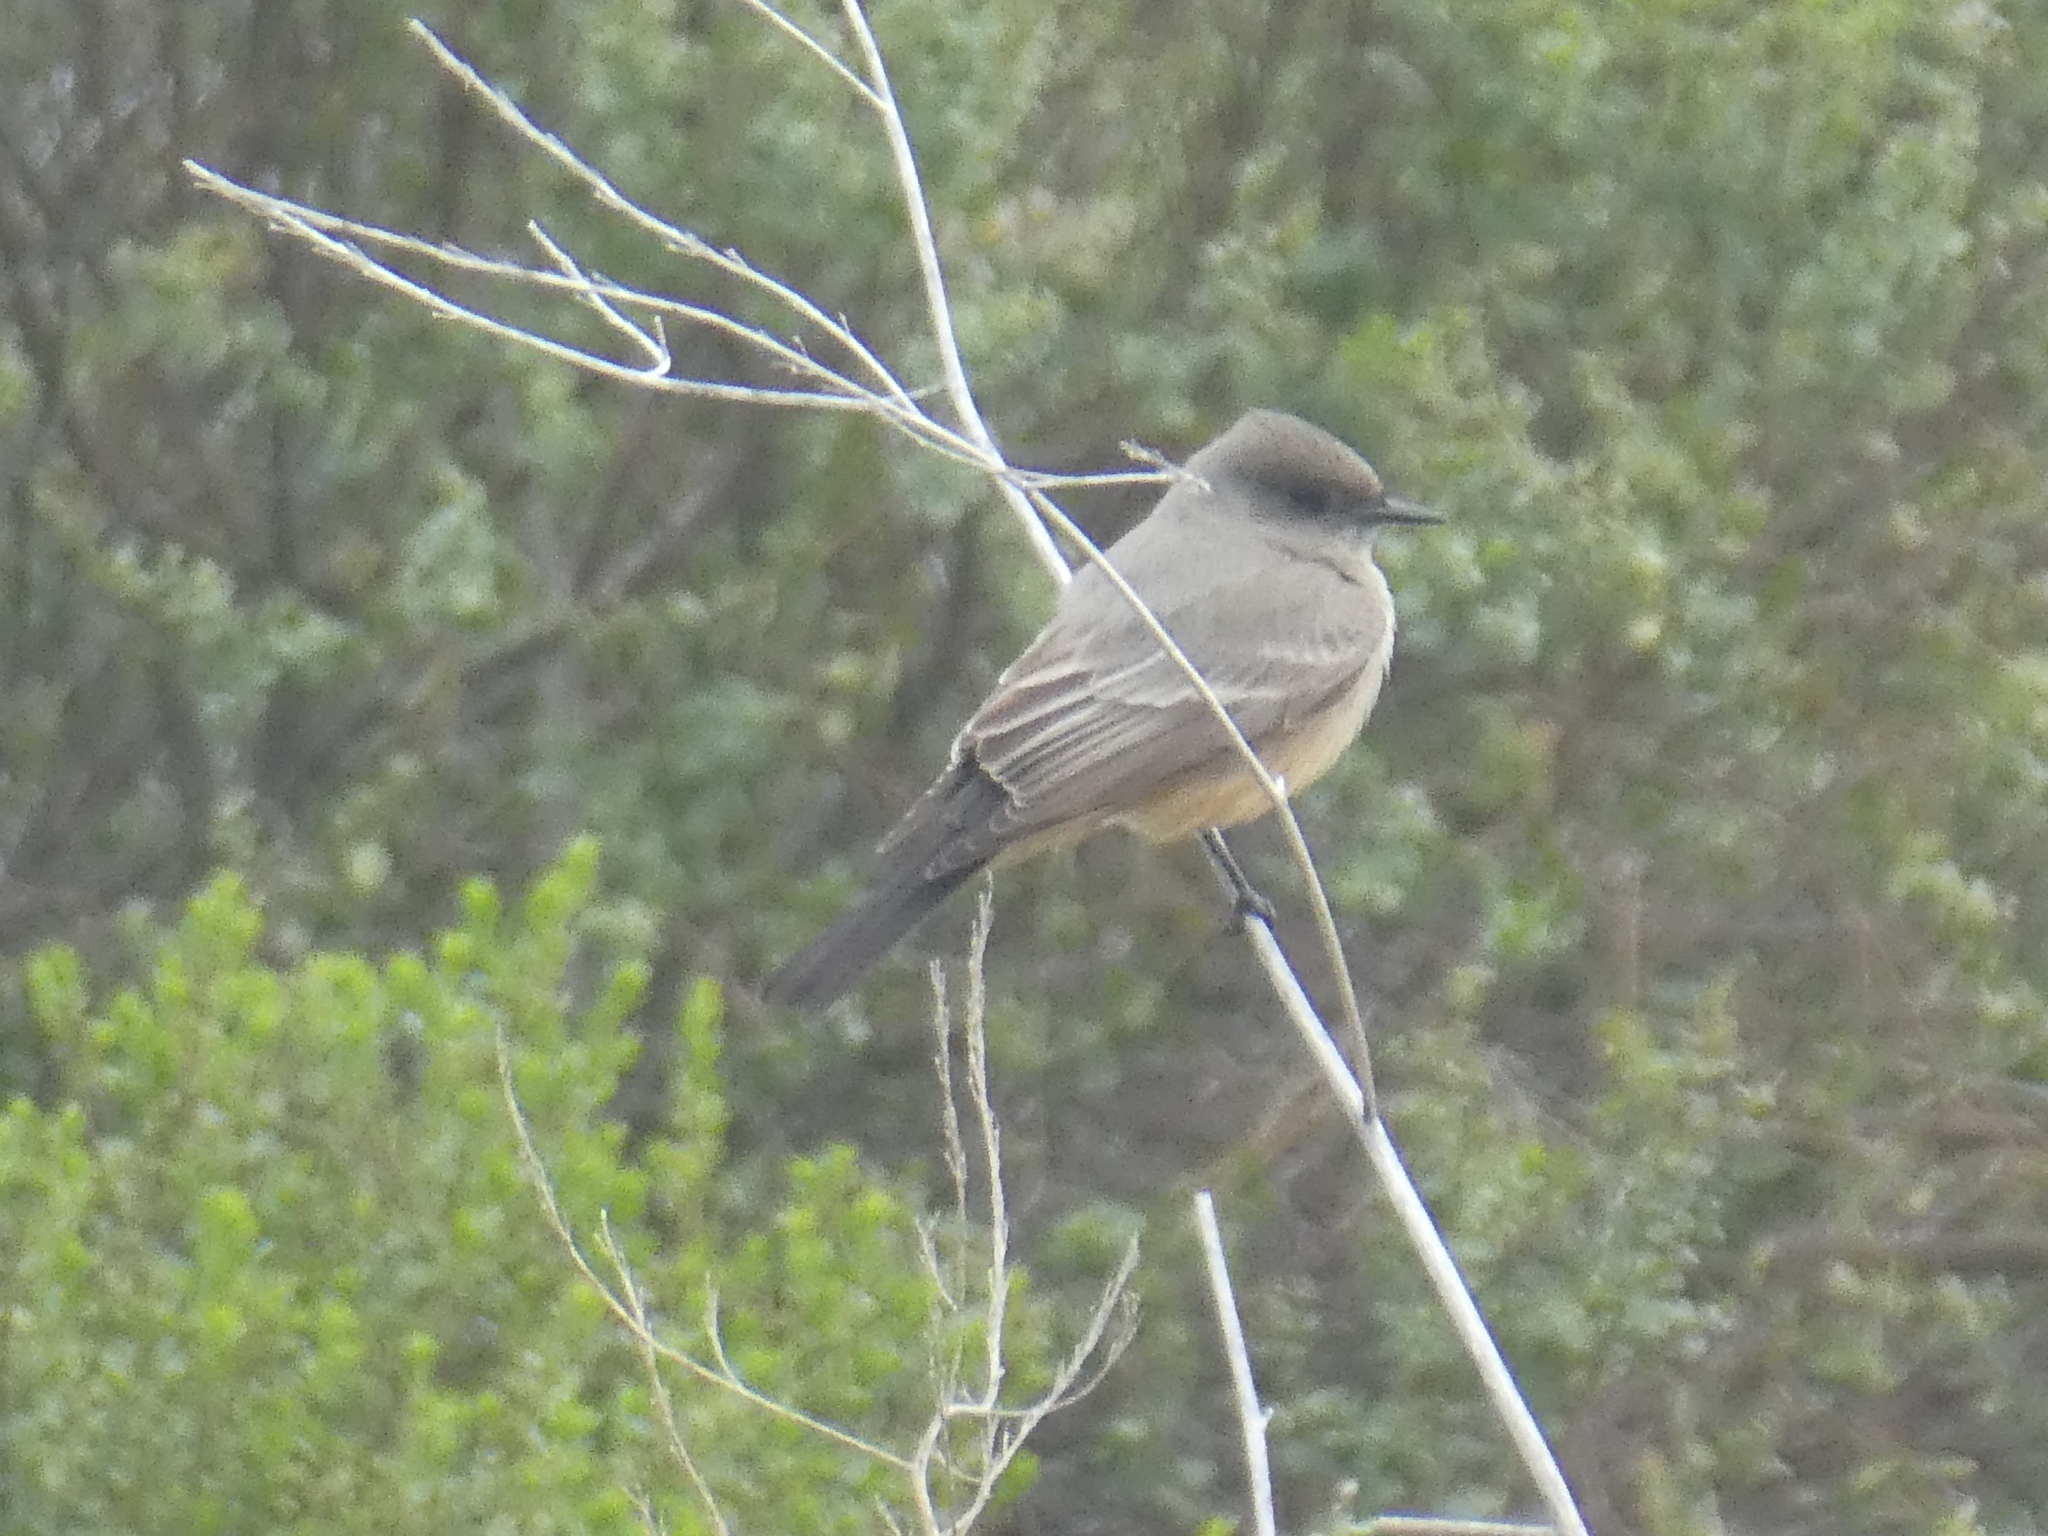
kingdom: Animalia
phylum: Chordata
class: Aves
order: Passeriformes
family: Tyrannidae
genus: Sayornis
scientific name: Sayornis saya
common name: Say's phoebe
